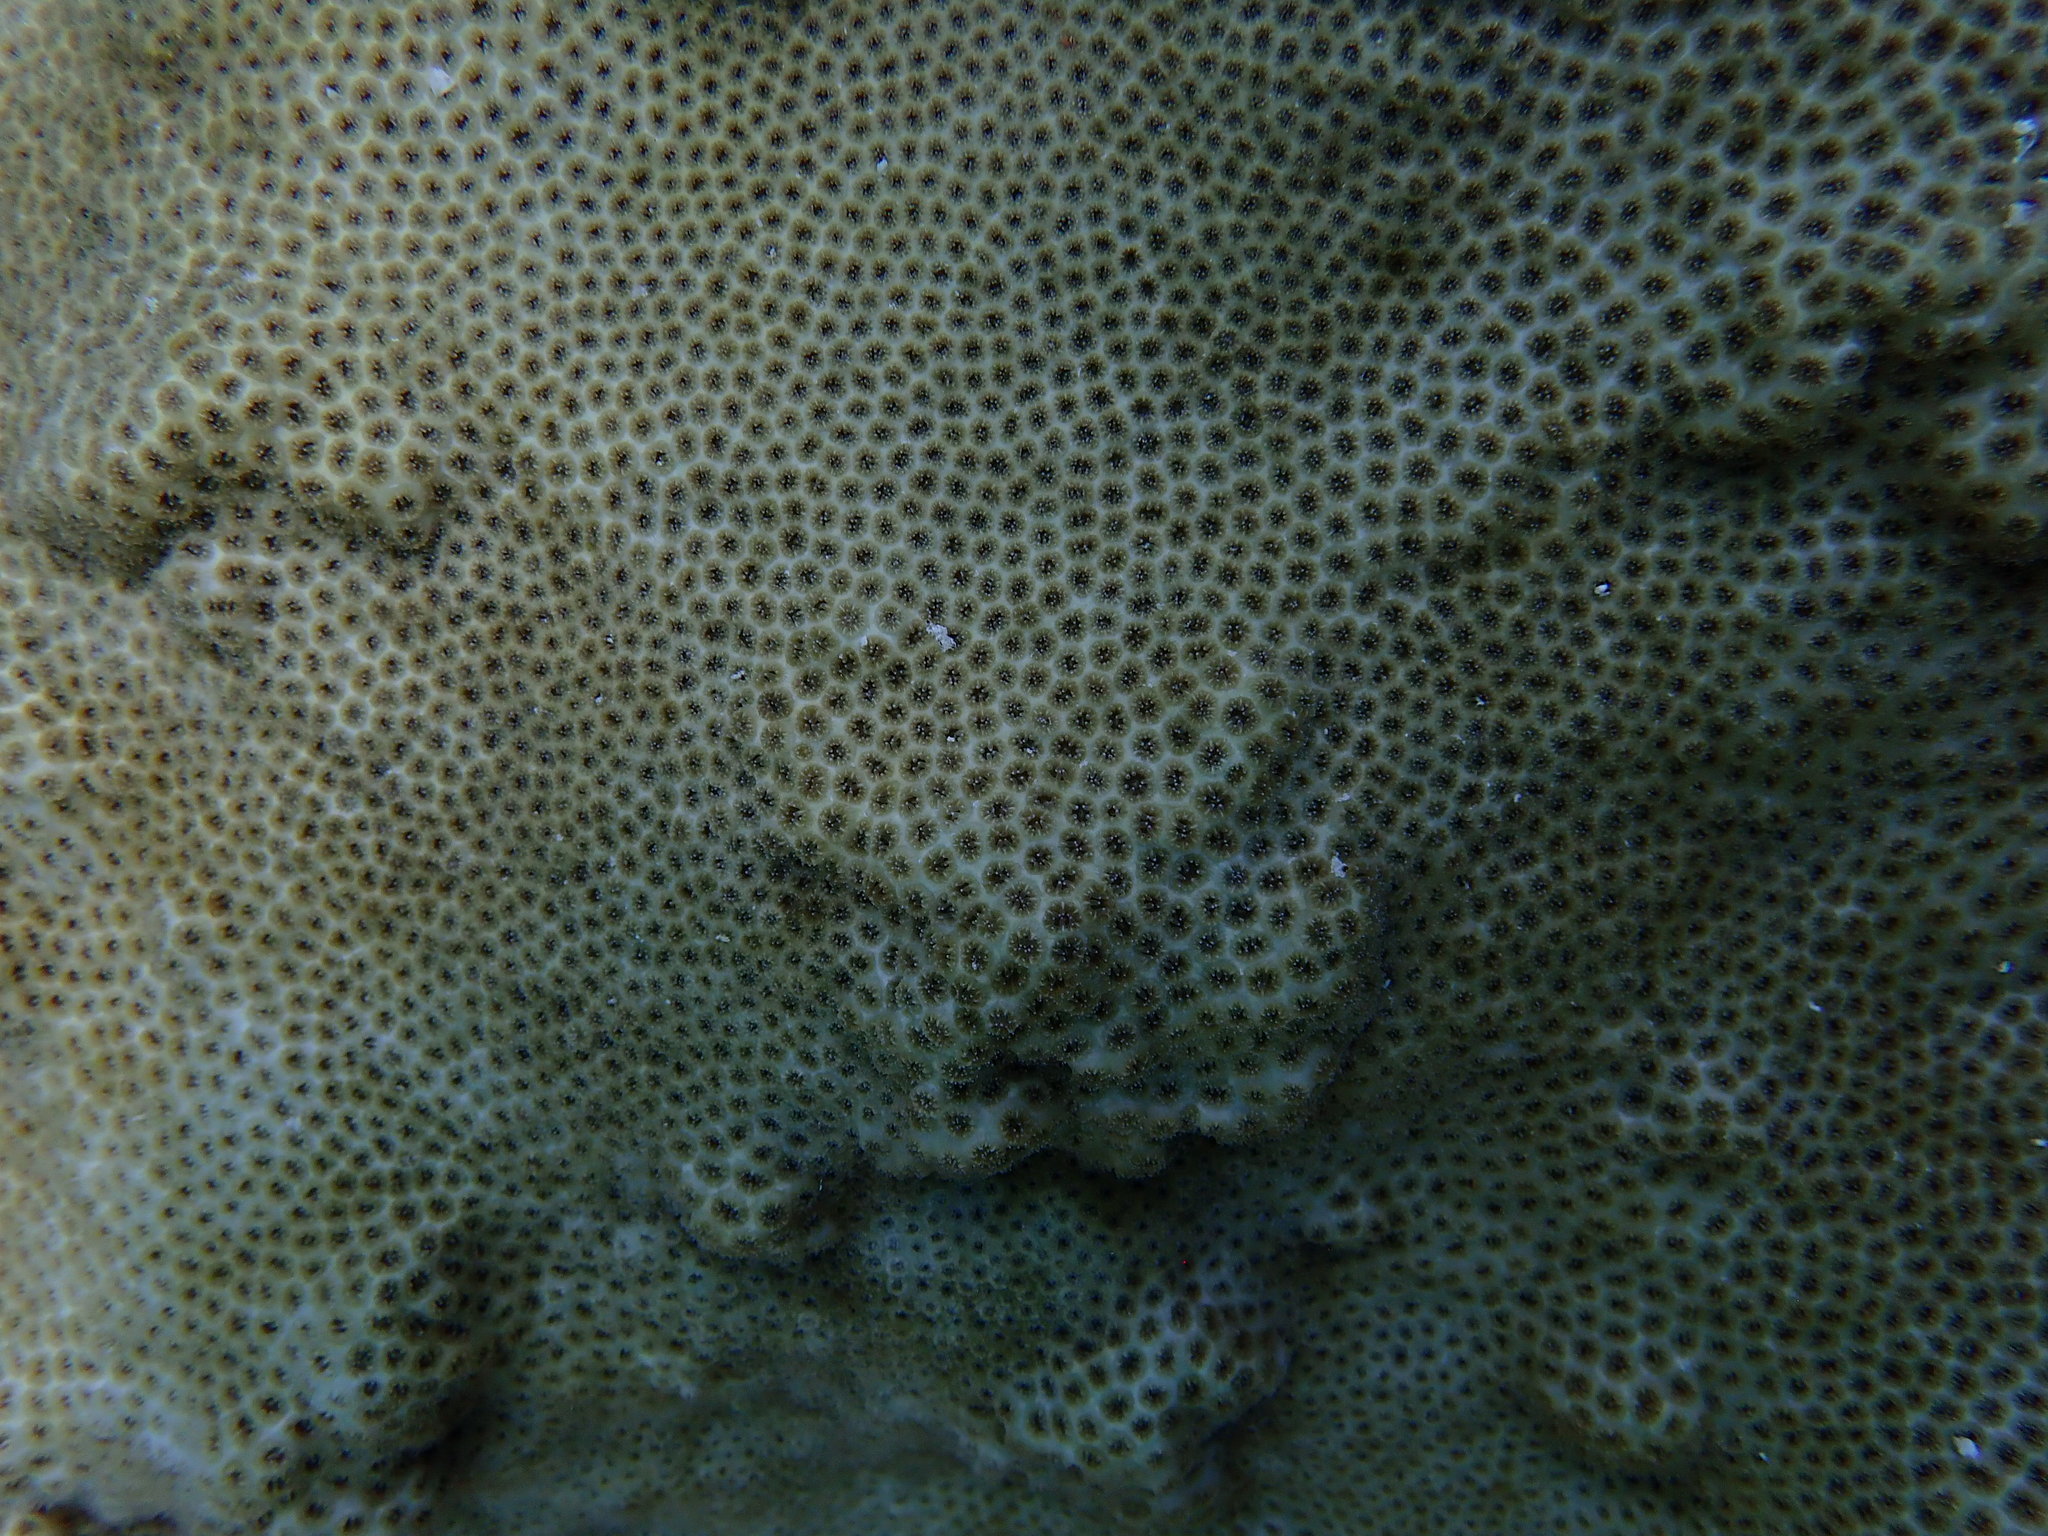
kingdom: Animalia
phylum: Cnidaria
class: Anthozoa
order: Scleractinia
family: Faviidae
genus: Solenastrea
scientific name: Solenastrea bournoni
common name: Smooth star coral
